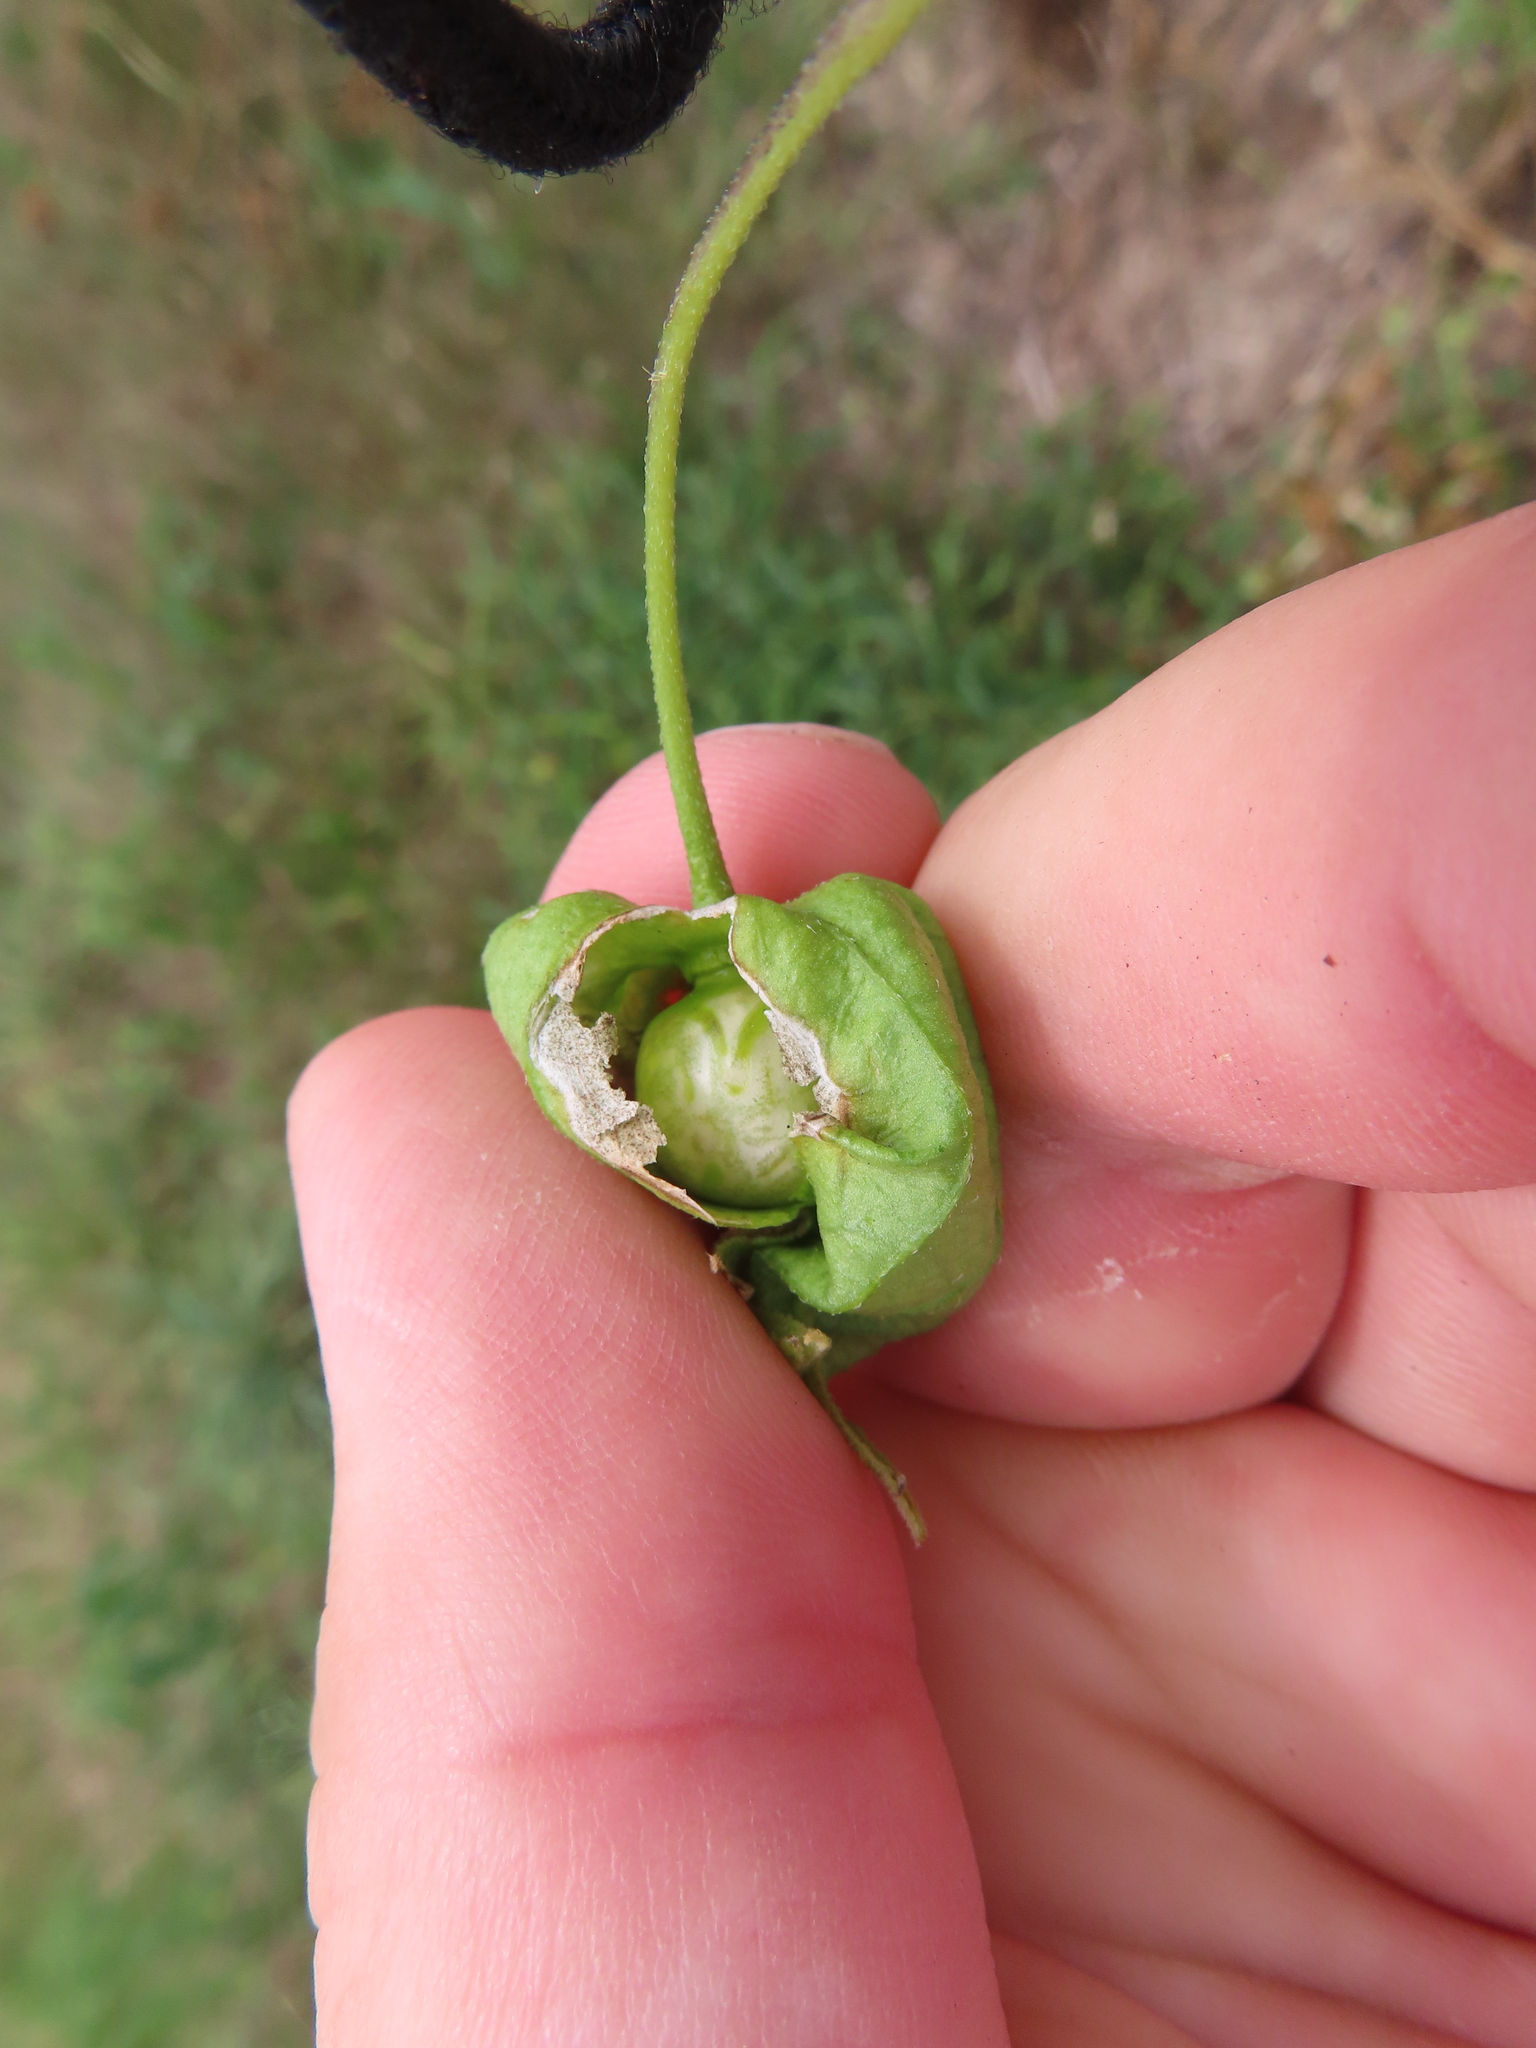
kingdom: Plantae
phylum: Tracheophyta
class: Magnoliopsida
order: Solanales
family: Solanaceae
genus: Physalis
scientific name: Physalis longifolia
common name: Common ground-cherry
